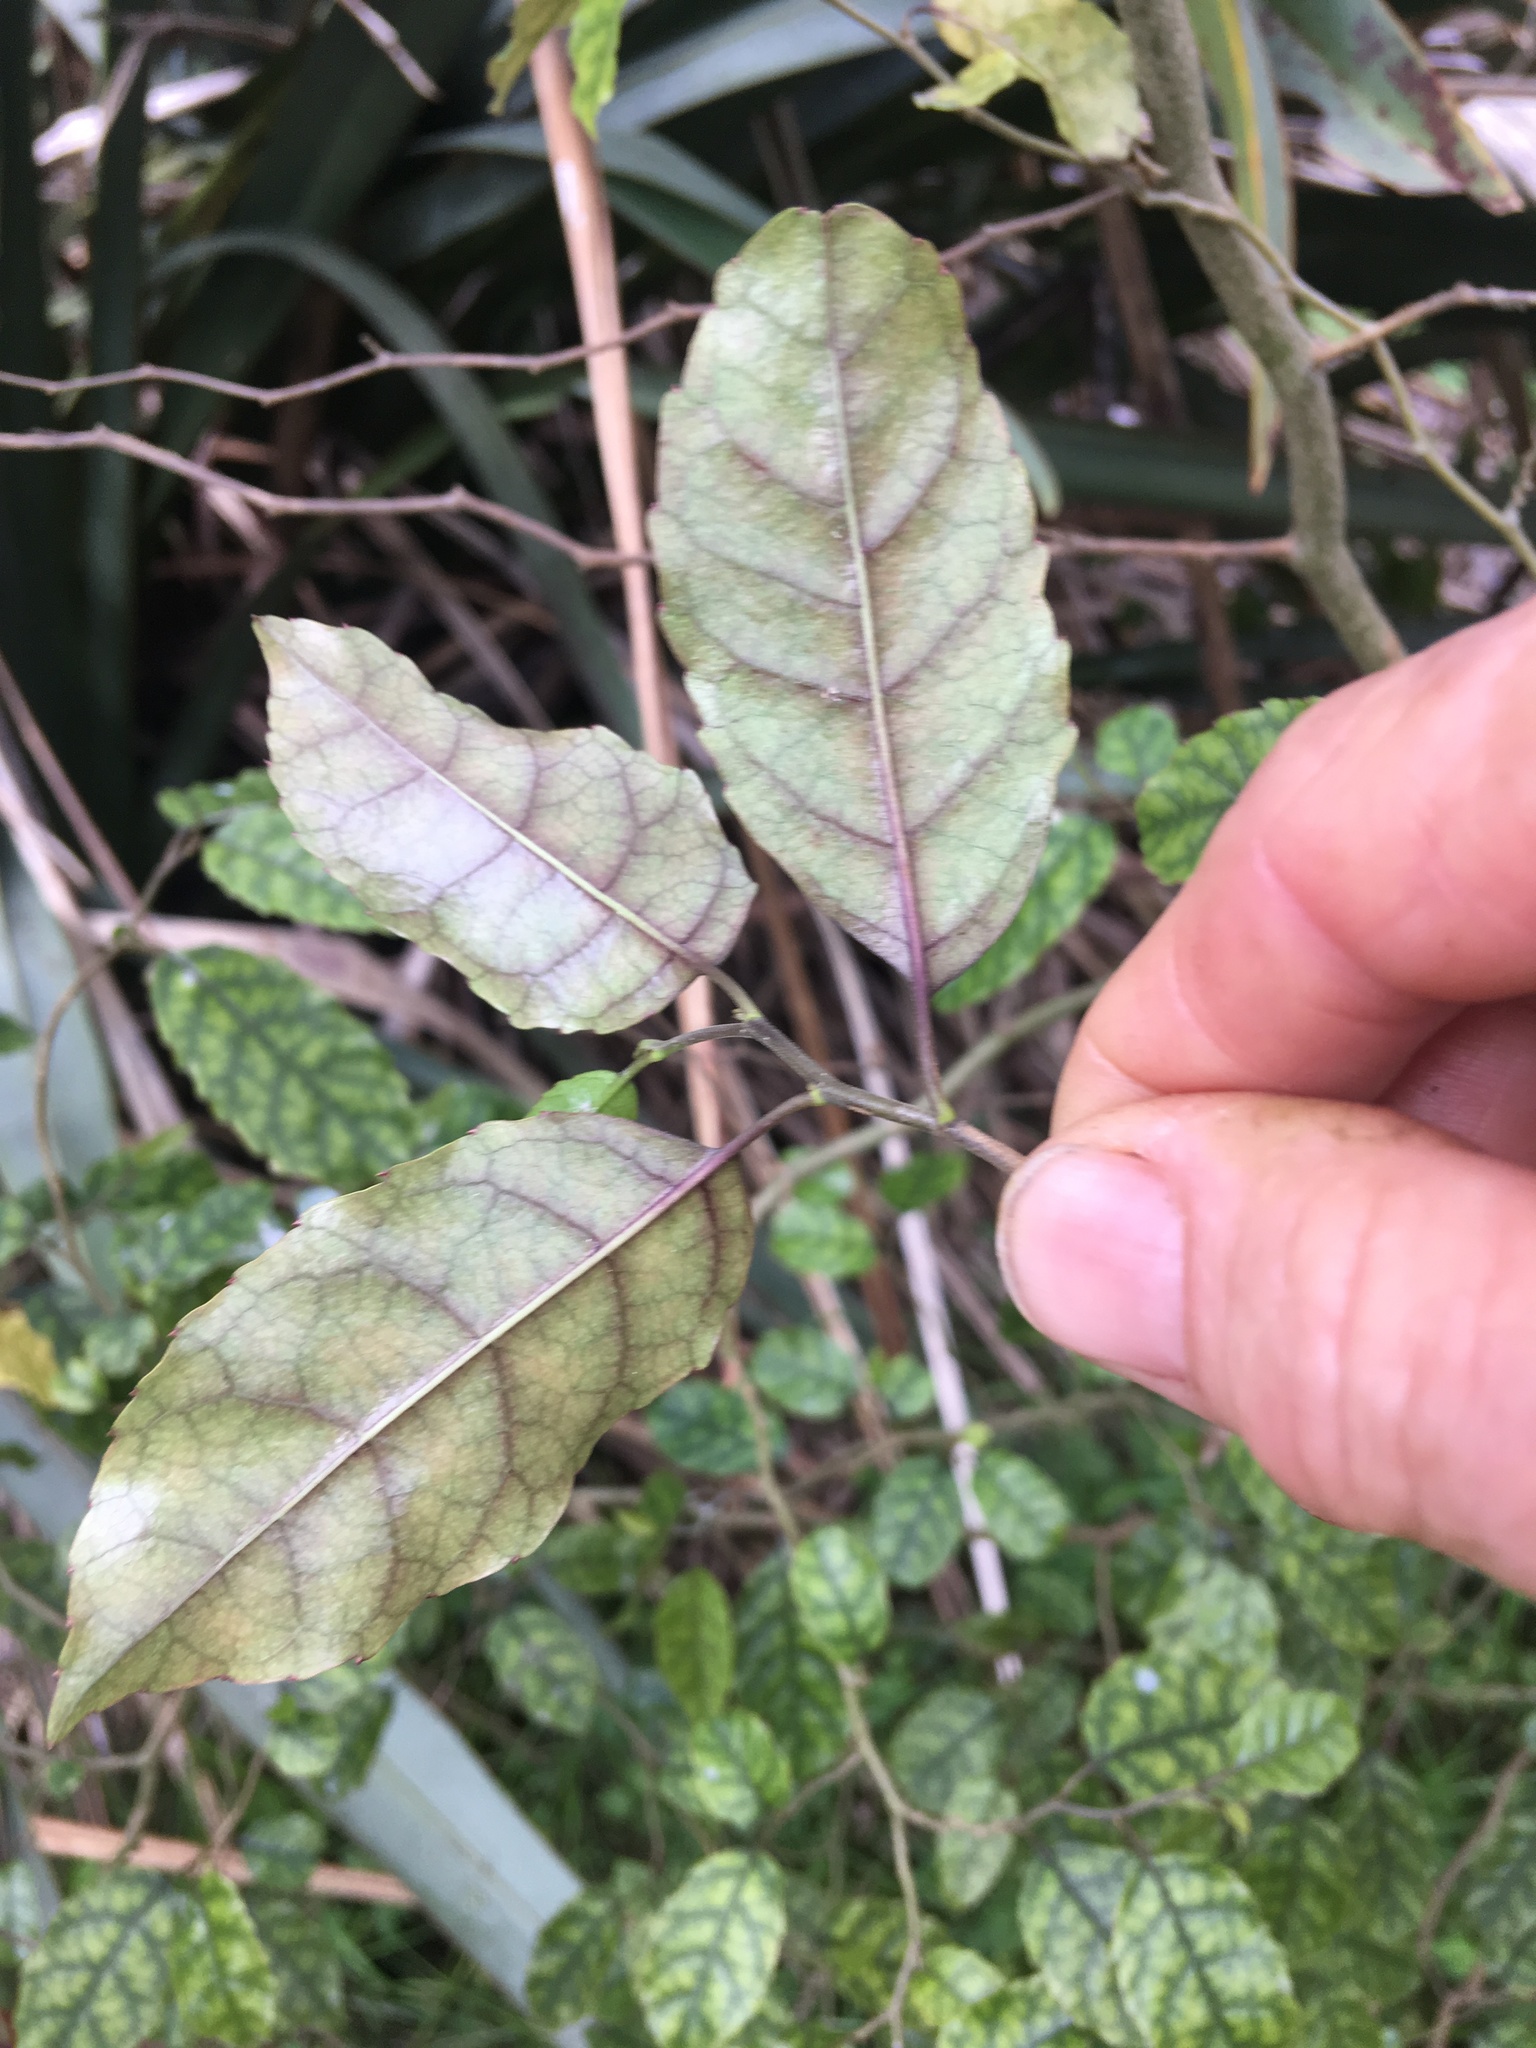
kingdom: Plantae
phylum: Tracheophyta
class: Magnoliopsida
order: Asterales
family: Rousseaceae
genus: Carpodetus
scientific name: Carpodetus serratus
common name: White mapau
